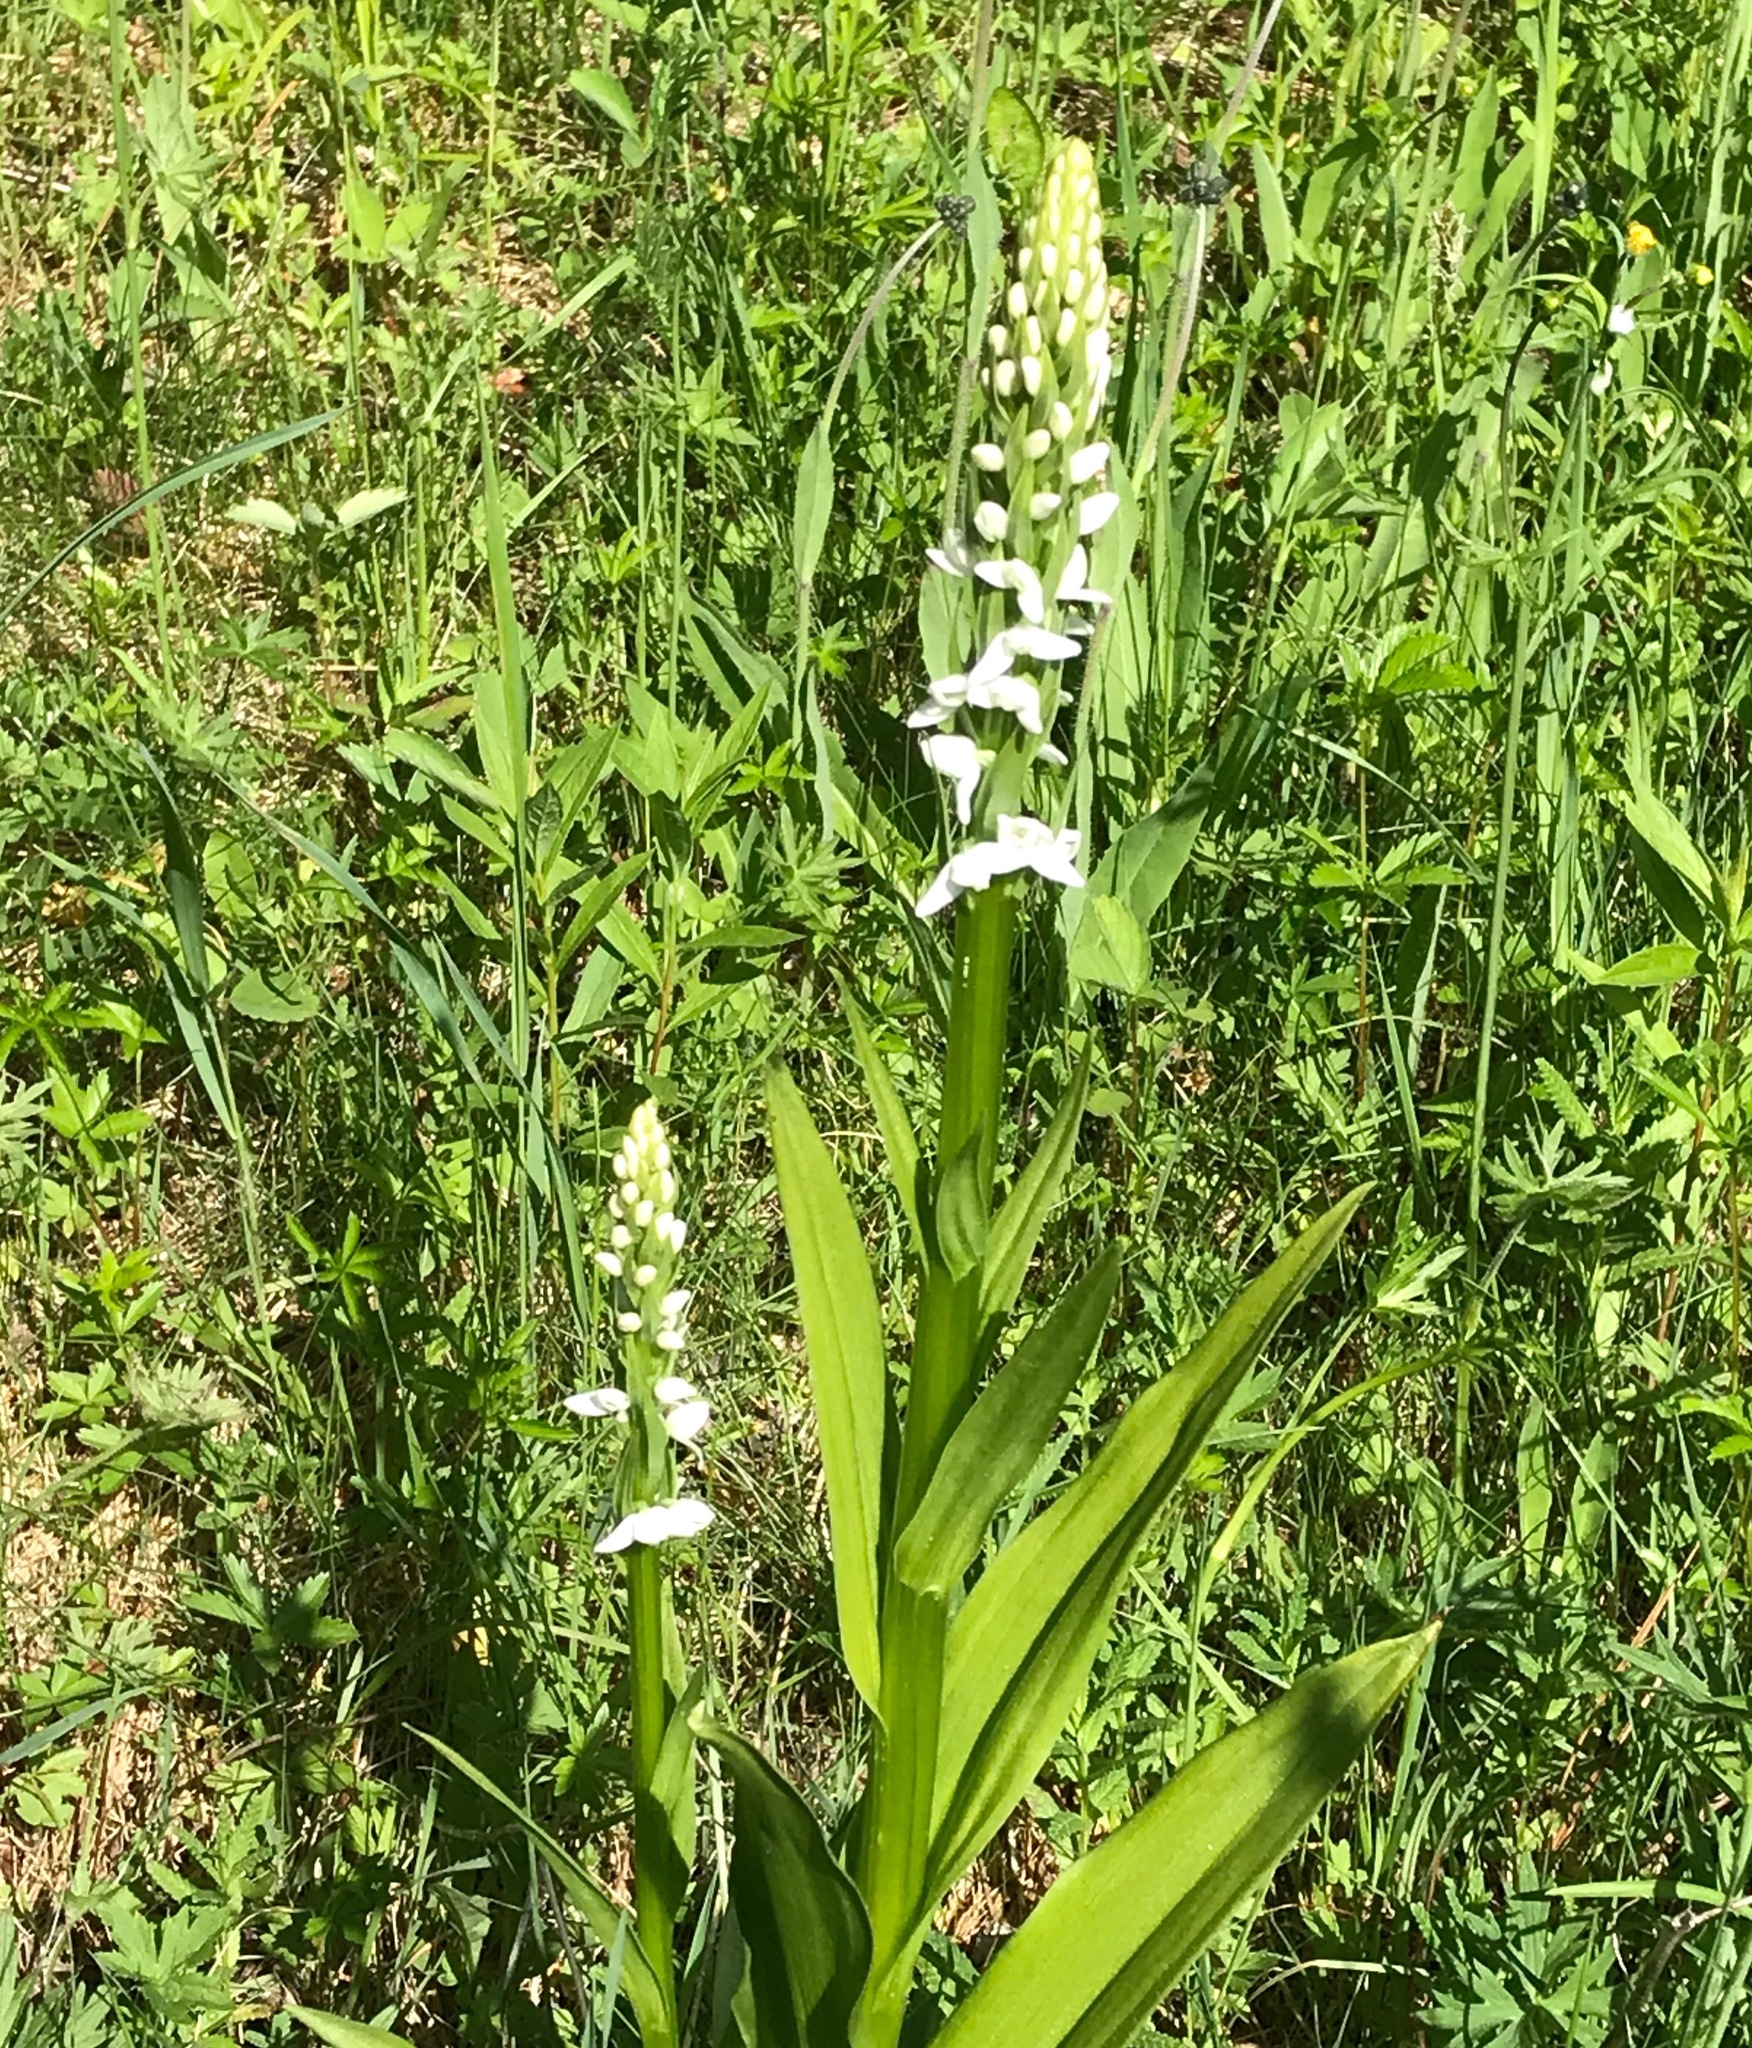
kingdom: Plantae
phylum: Tracheophyta
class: Liliopsida
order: Asparagales
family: Orchidaceae
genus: Platanthera
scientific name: Platanthera dilatata
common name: Bog candles
